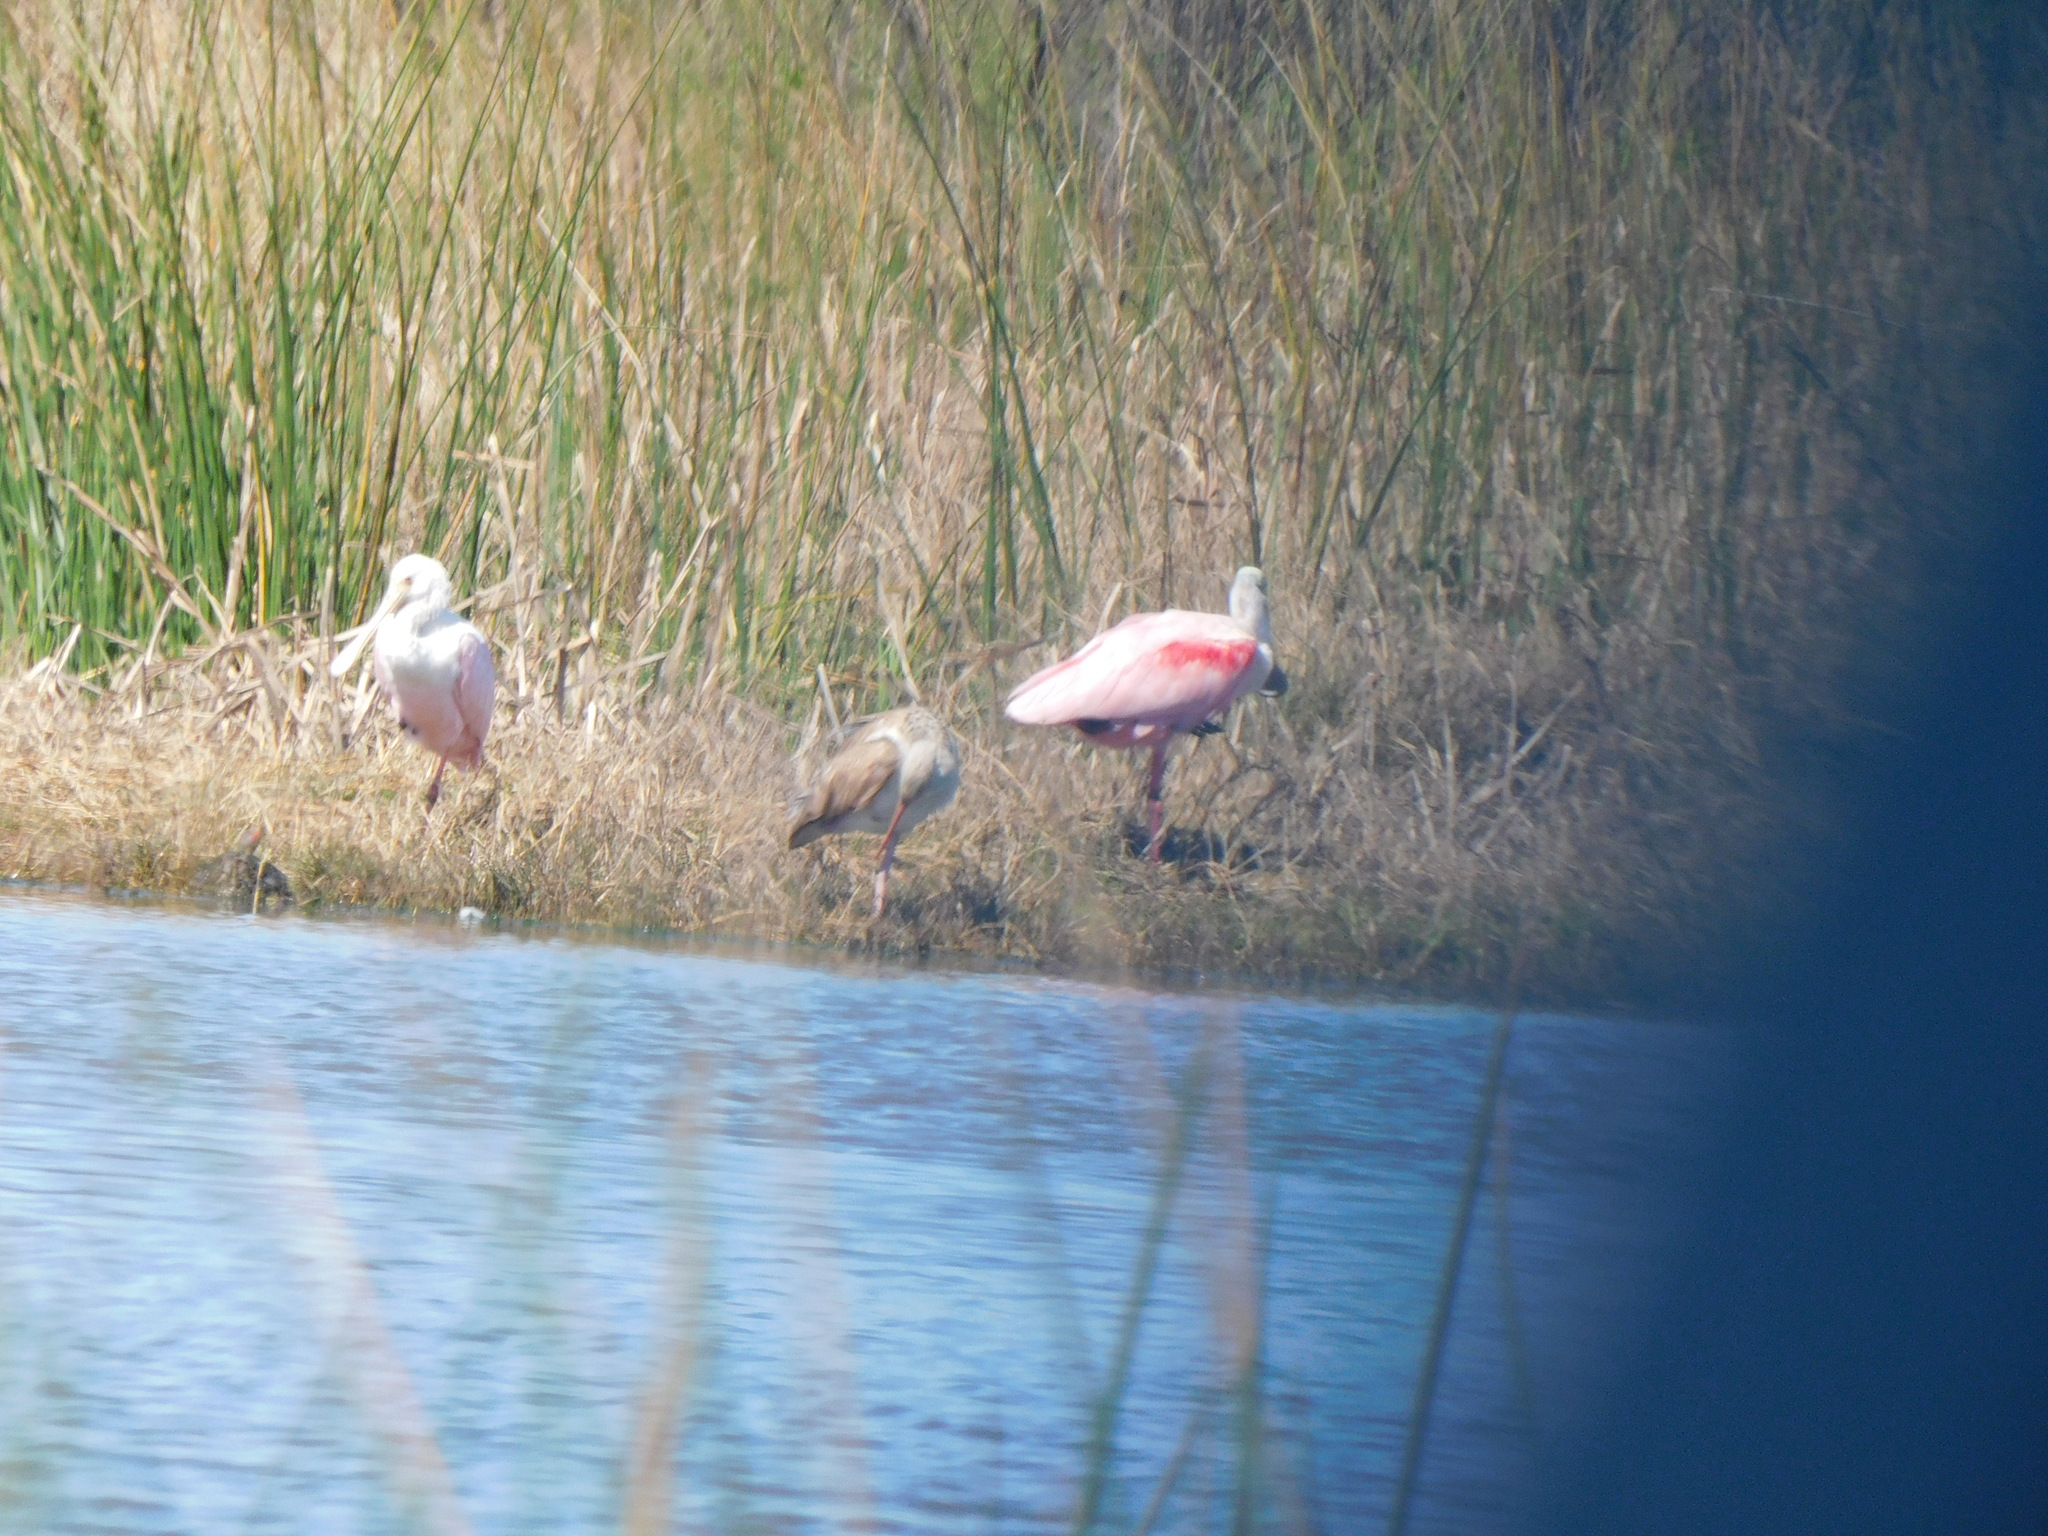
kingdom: Animalia
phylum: Chordata
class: Aves
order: Pelecaniformes
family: Threskiornithidae
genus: Platalea
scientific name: Platalea ajaja
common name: Roseate spoonbill
